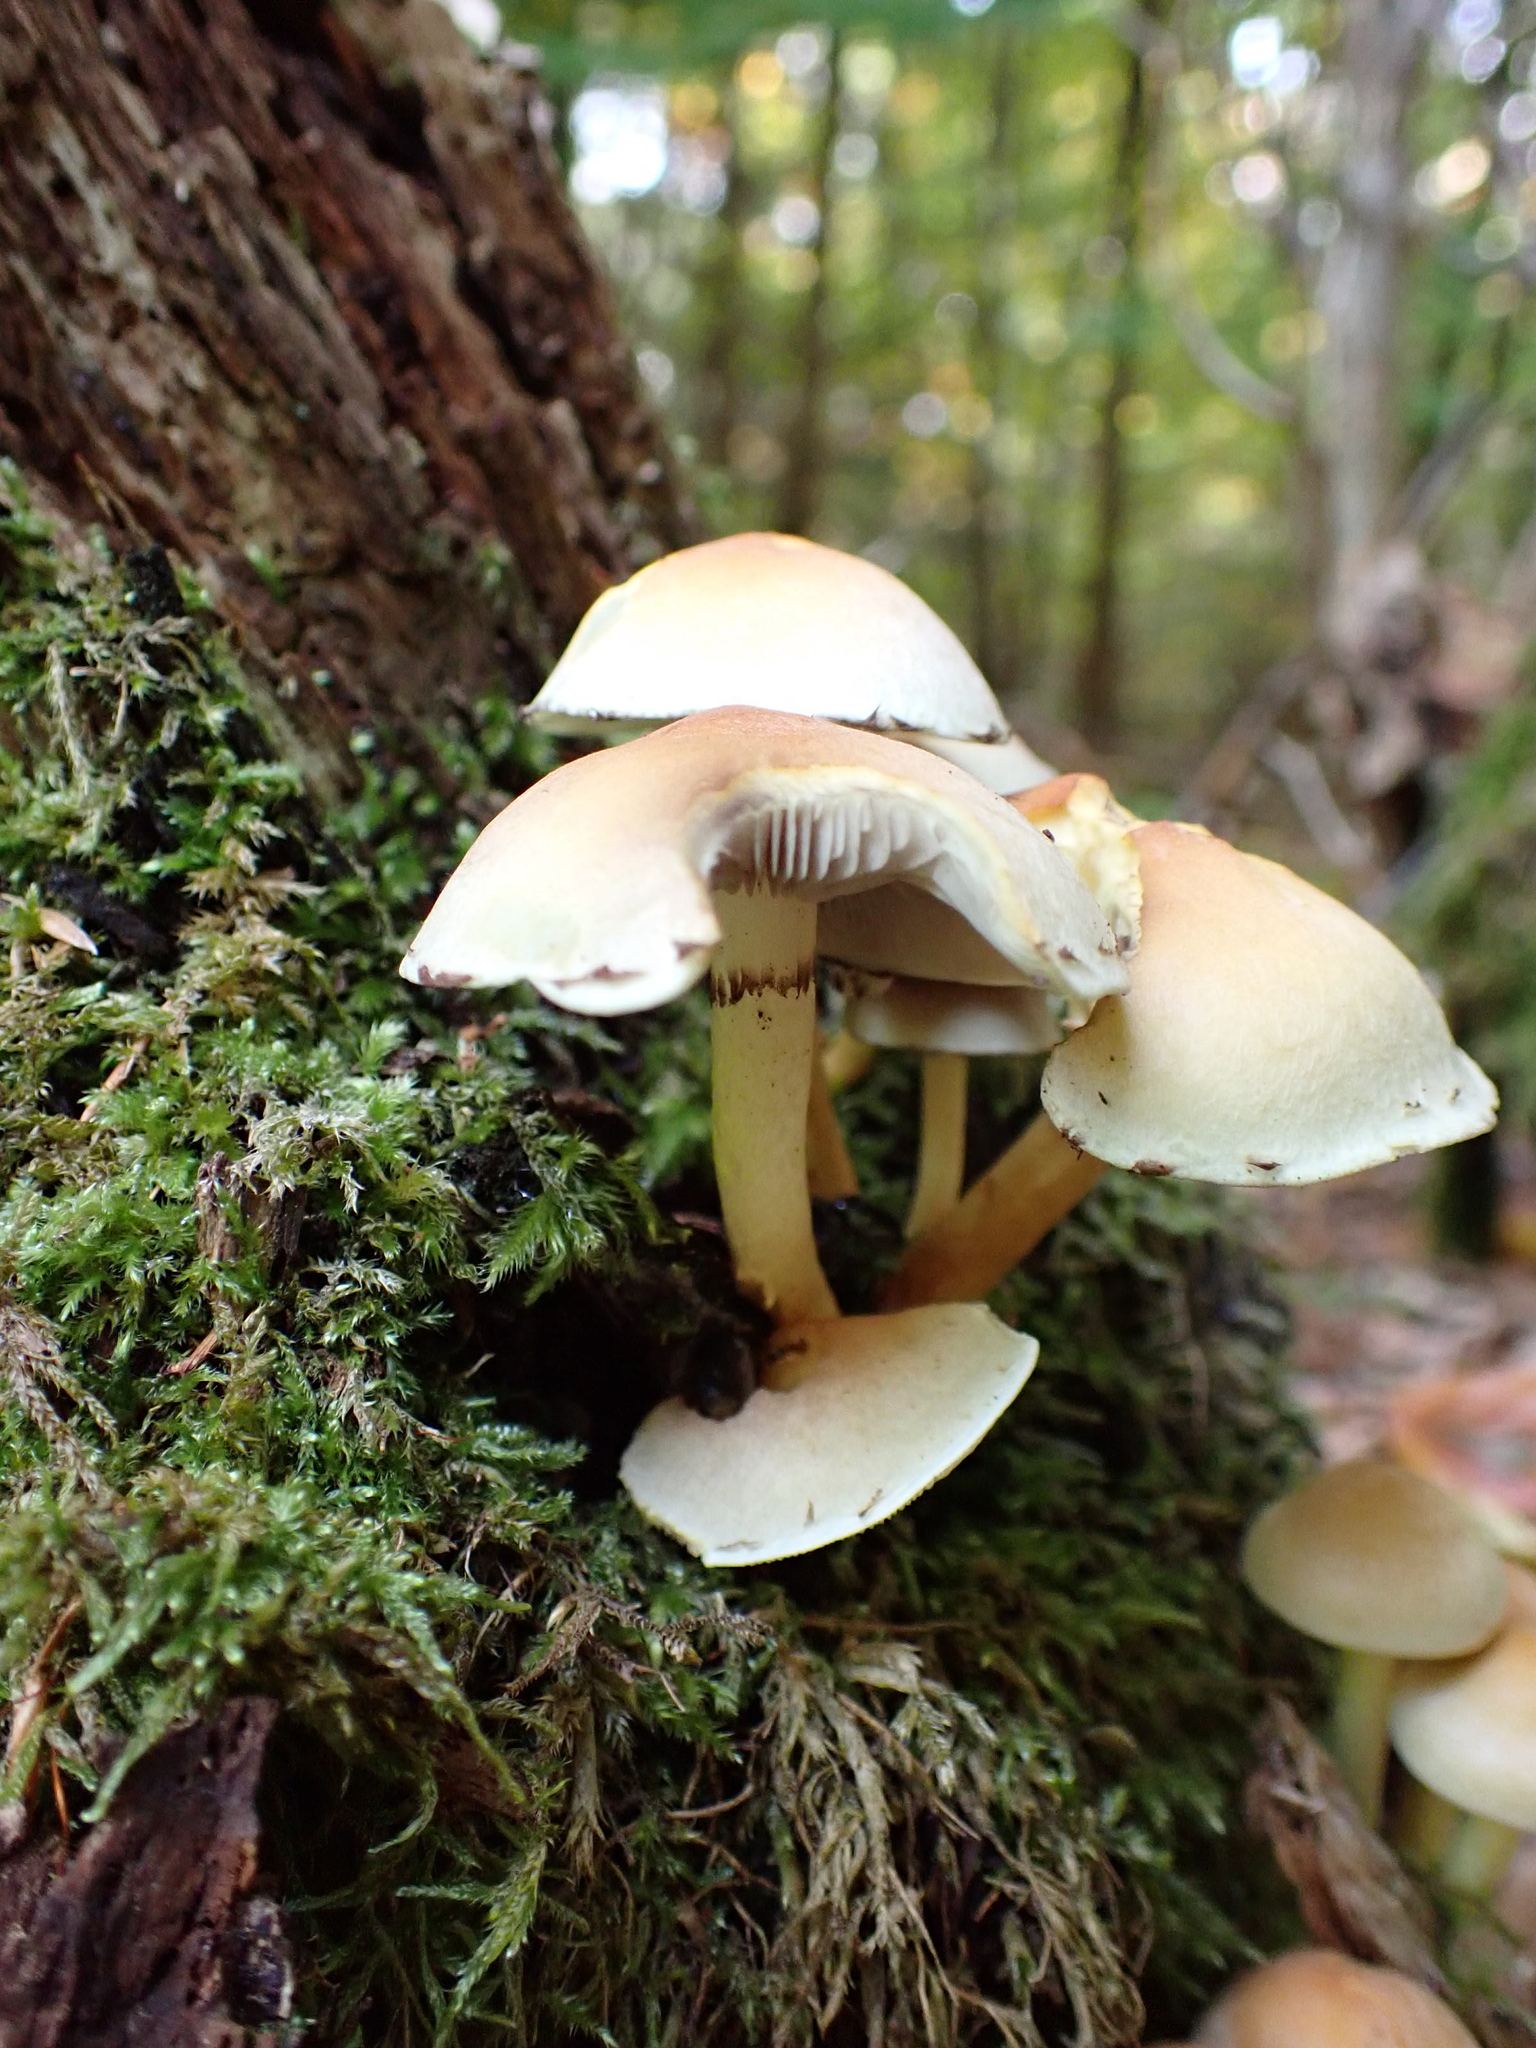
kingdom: Fungi
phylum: Basidiomycota
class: Agaricomycetes
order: Agaricales
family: Strophariaceae
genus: Hypholoma
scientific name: Hypholoma fasciculare
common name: Sulphur tuft
